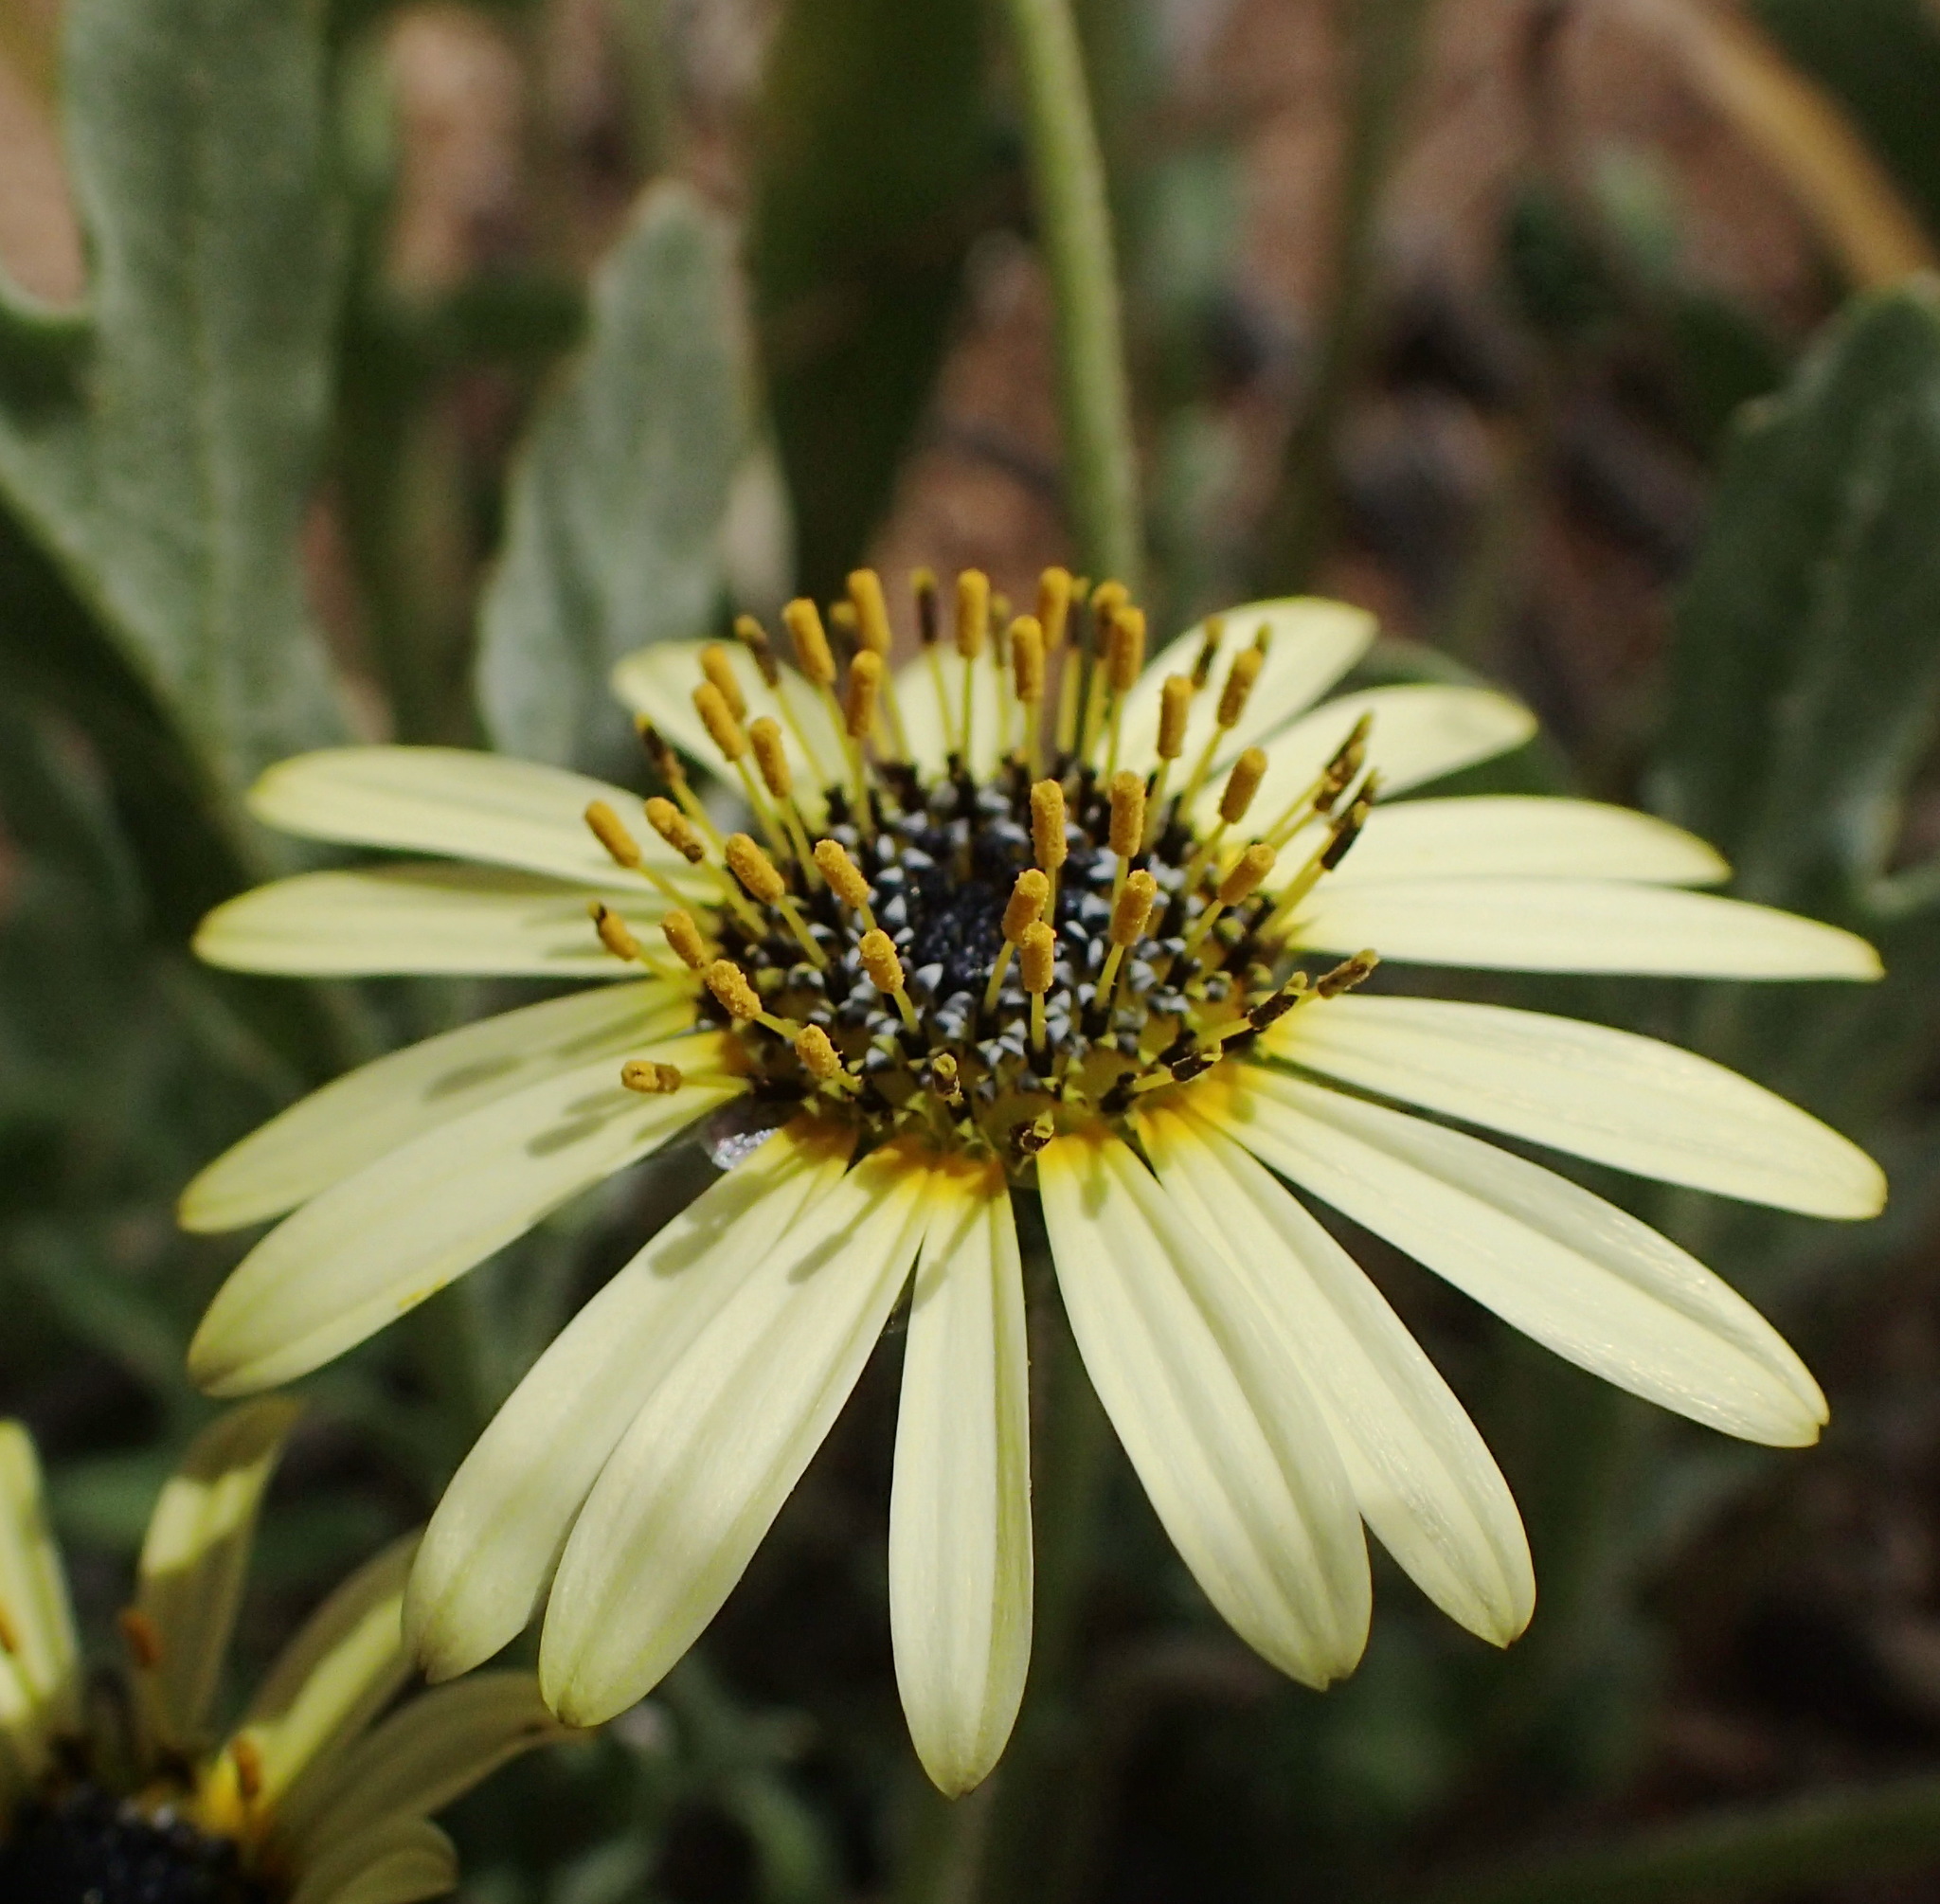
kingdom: Plantae
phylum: Tracheophyta
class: Magnoliopsida
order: Asterales
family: Asteraceae
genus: Arctotheca
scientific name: Arctotheca calendula
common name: Capeweed
